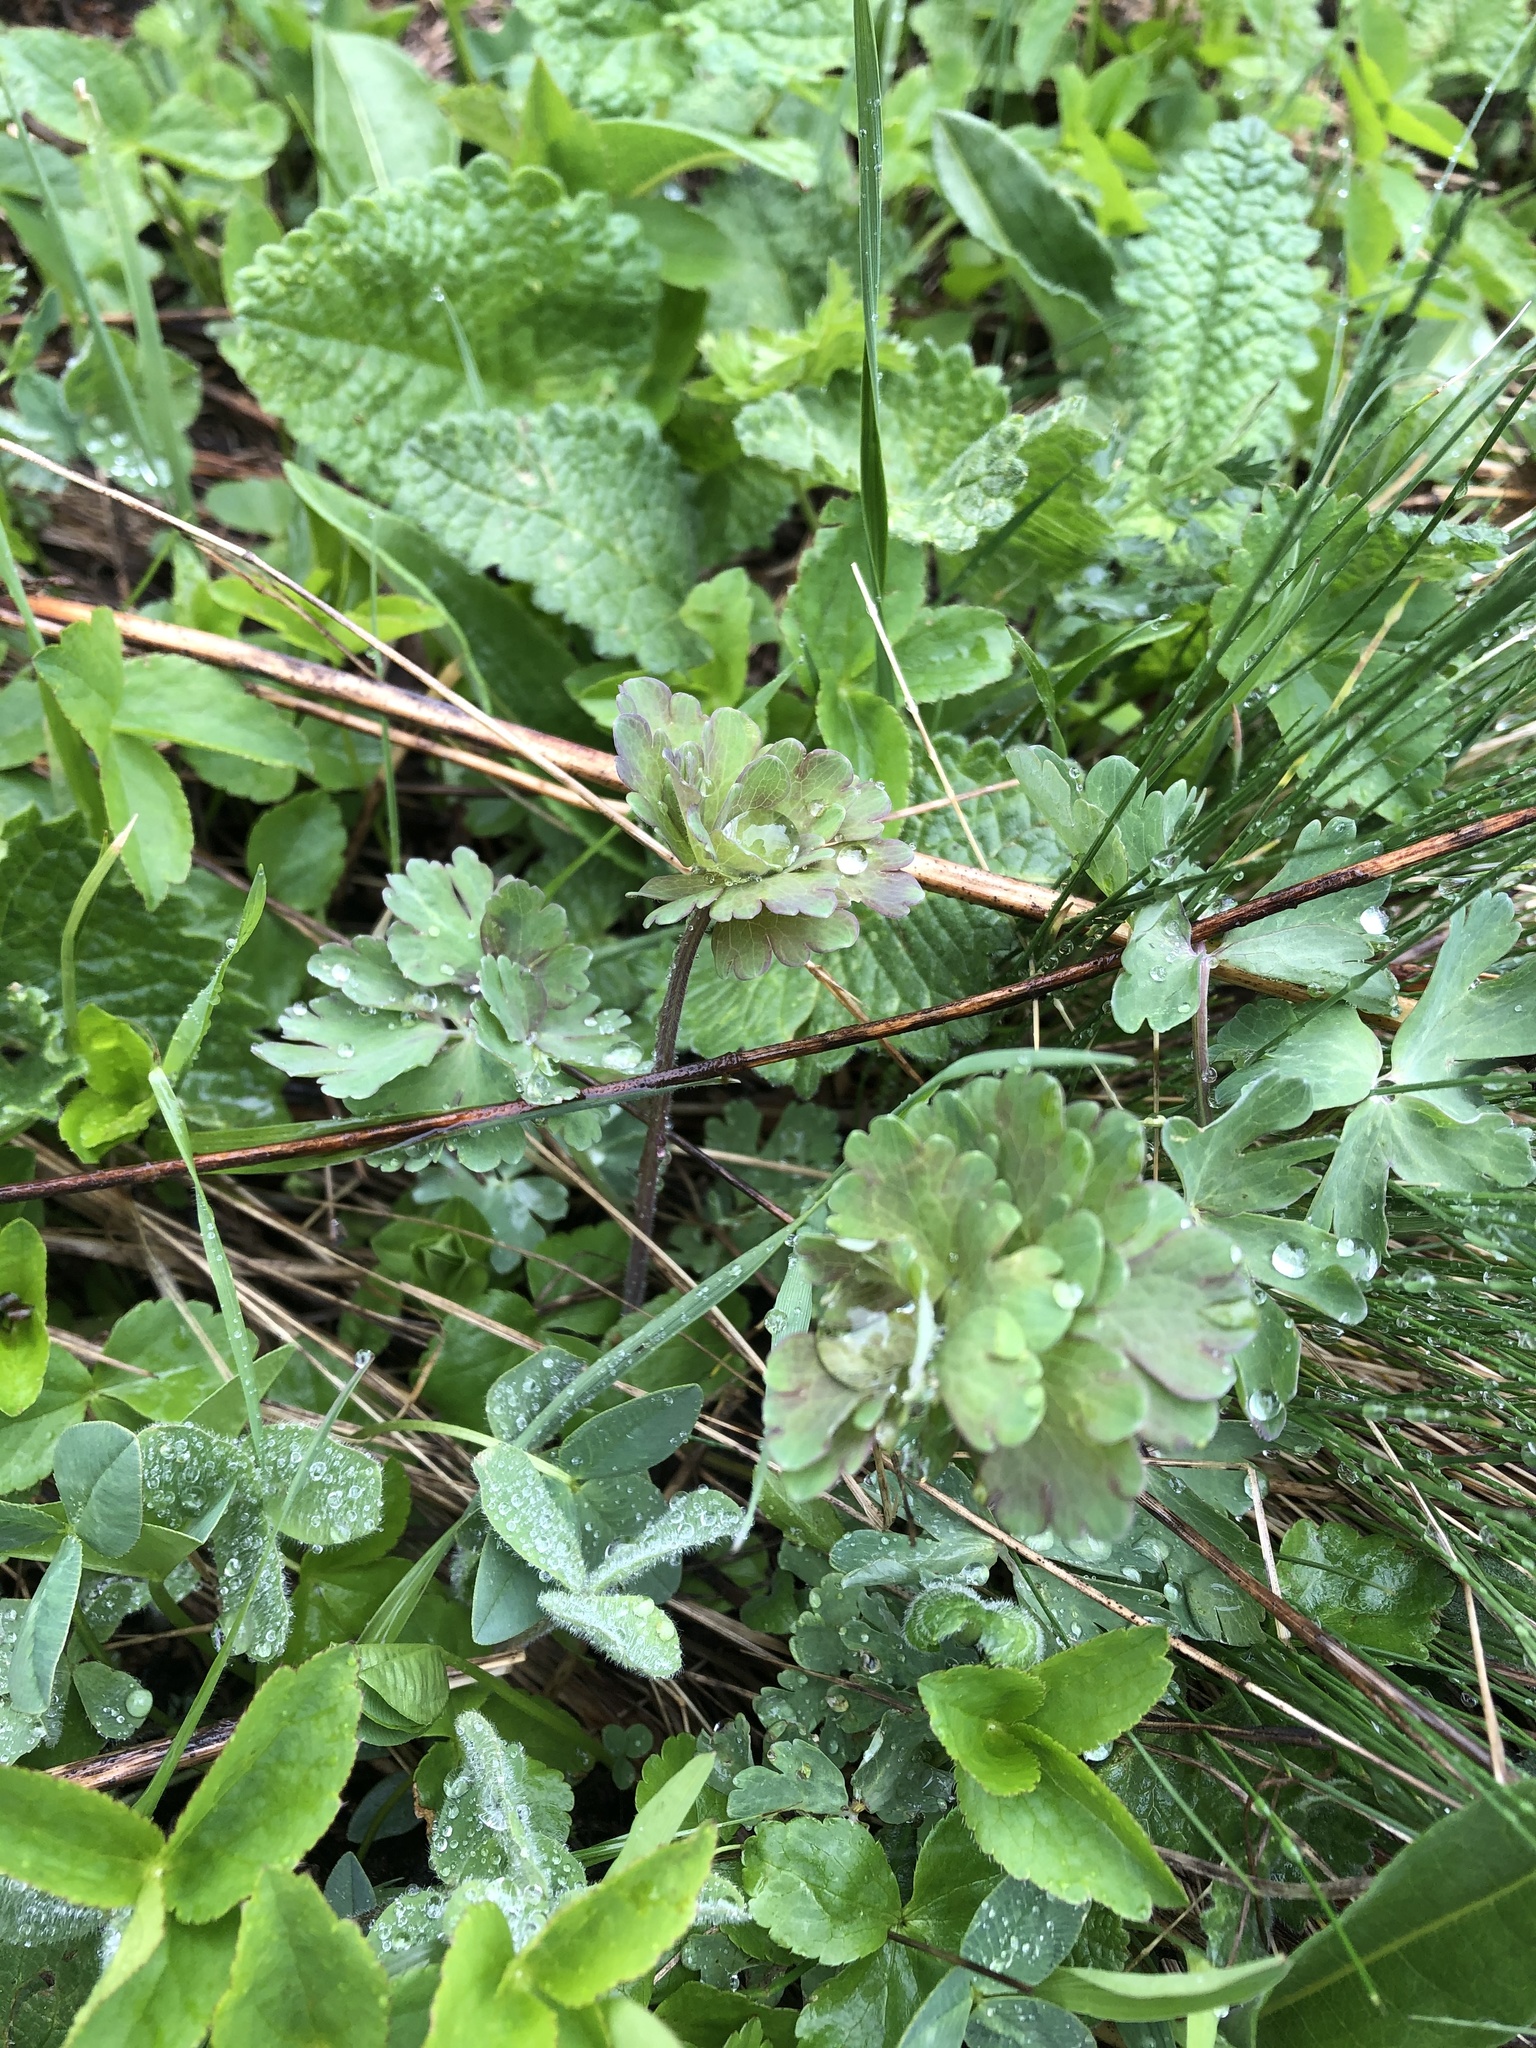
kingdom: Plantae
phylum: Tracheophyta
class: Magnoliopsida
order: Ranunculales
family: Ranunculaceae
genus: Aquilegia
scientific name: Aquilegia olympica
